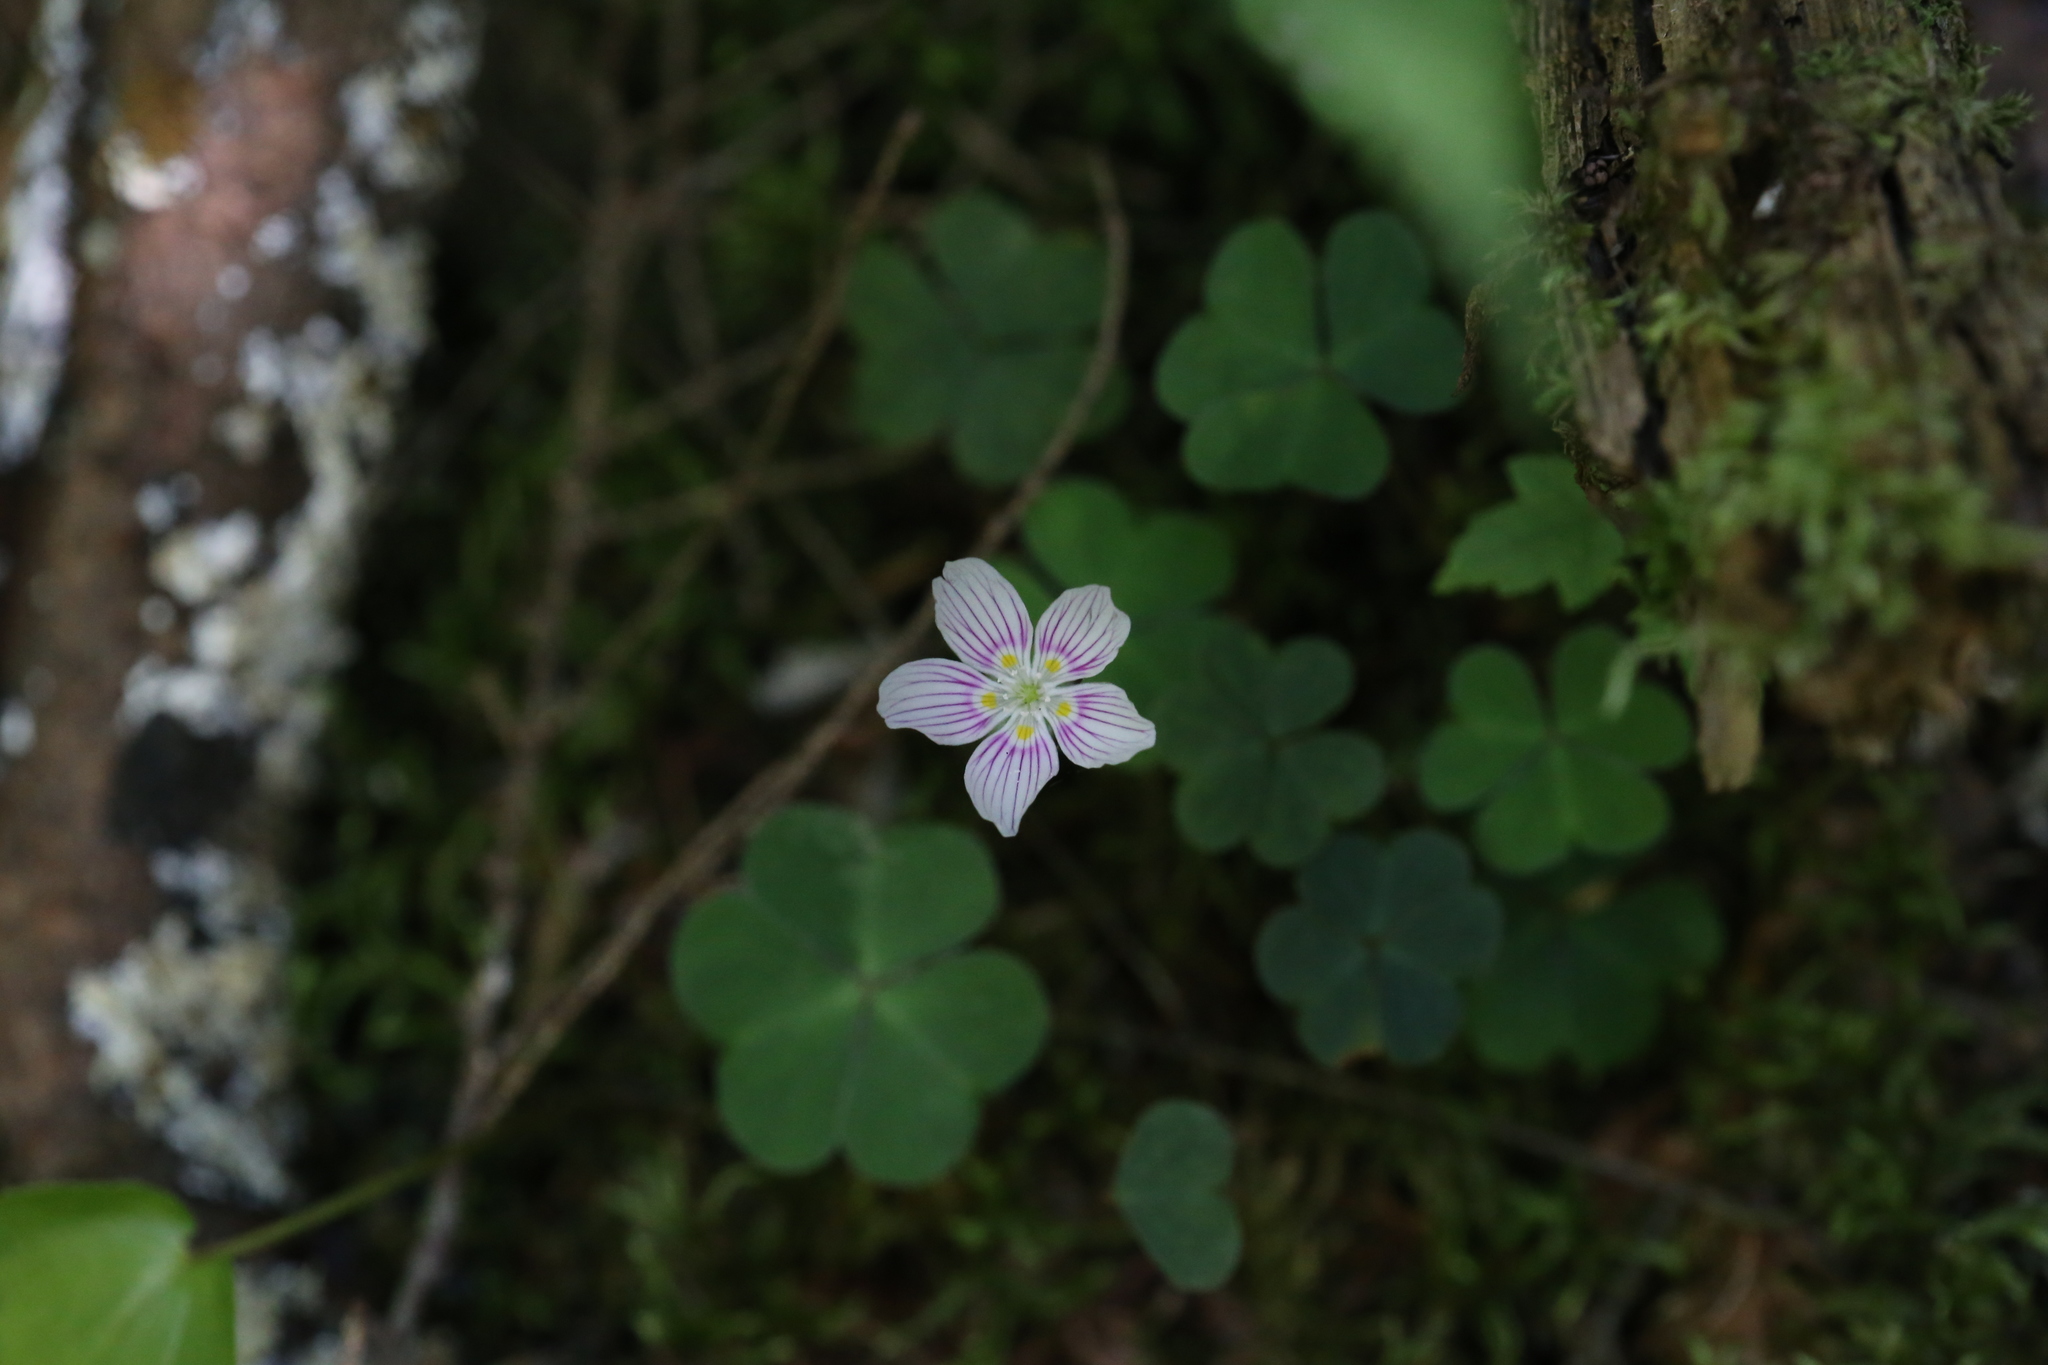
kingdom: Plantae
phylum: Tracheophyta
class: Magnoliopsida
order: Oxalidales
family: Oxalidaceae
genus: Oxalis
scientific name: Oxalis montana
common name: American wood-sorrel
